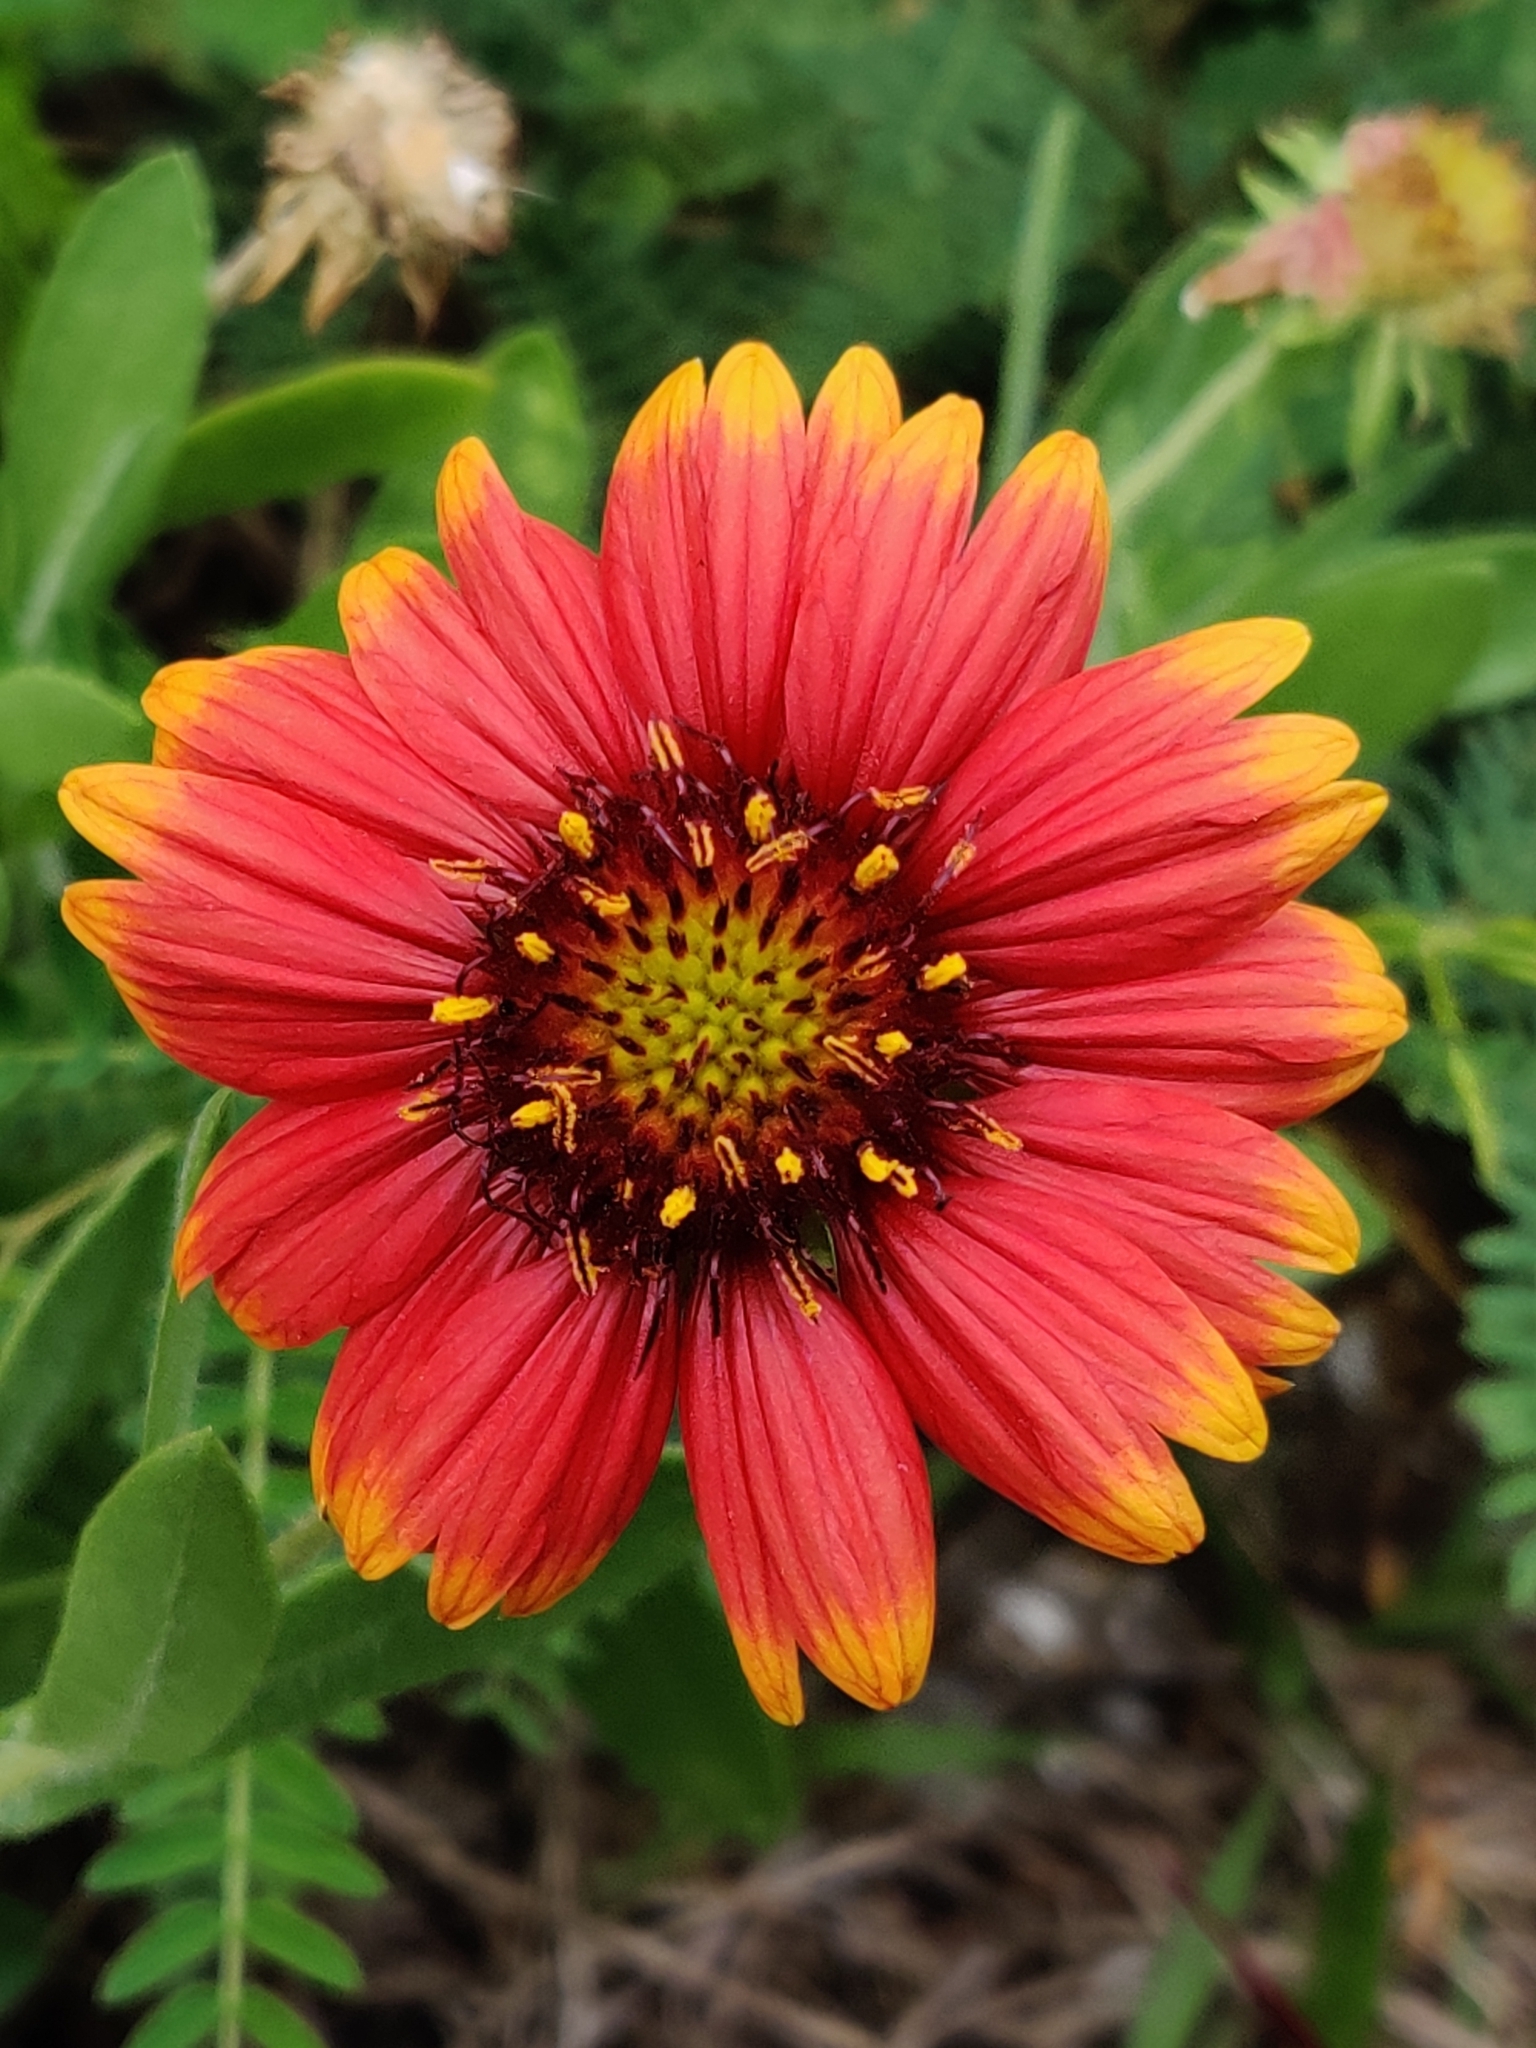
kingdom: Plantae
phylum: Tracheophyta
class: Magnoliopsida
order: Asterales
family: Asteraceae
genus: Gaillardia
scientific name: Gaillardia pulchella
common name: Firewheel
